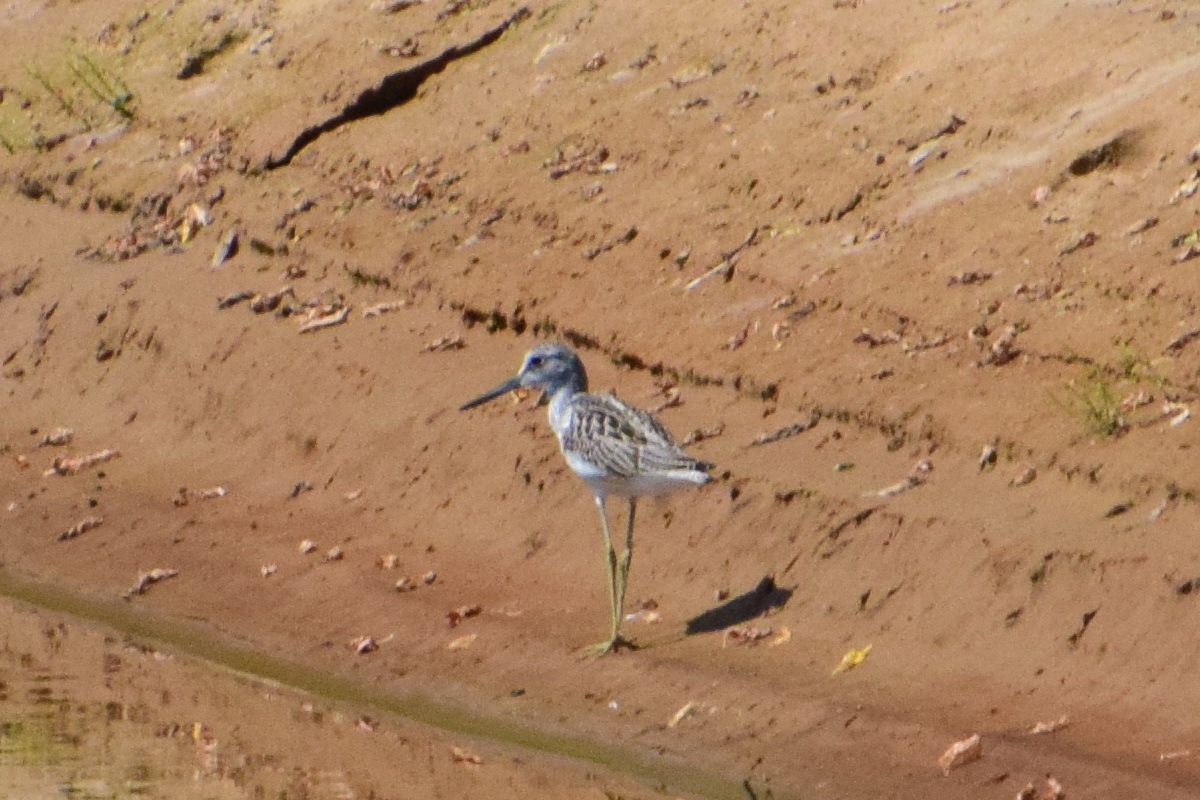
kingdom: Animalia
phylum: Chordata
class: Aves
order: Charadriiformes
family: Scolopacidae
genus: Tringa
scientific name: Tringa nebularia
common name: Common greenshank
